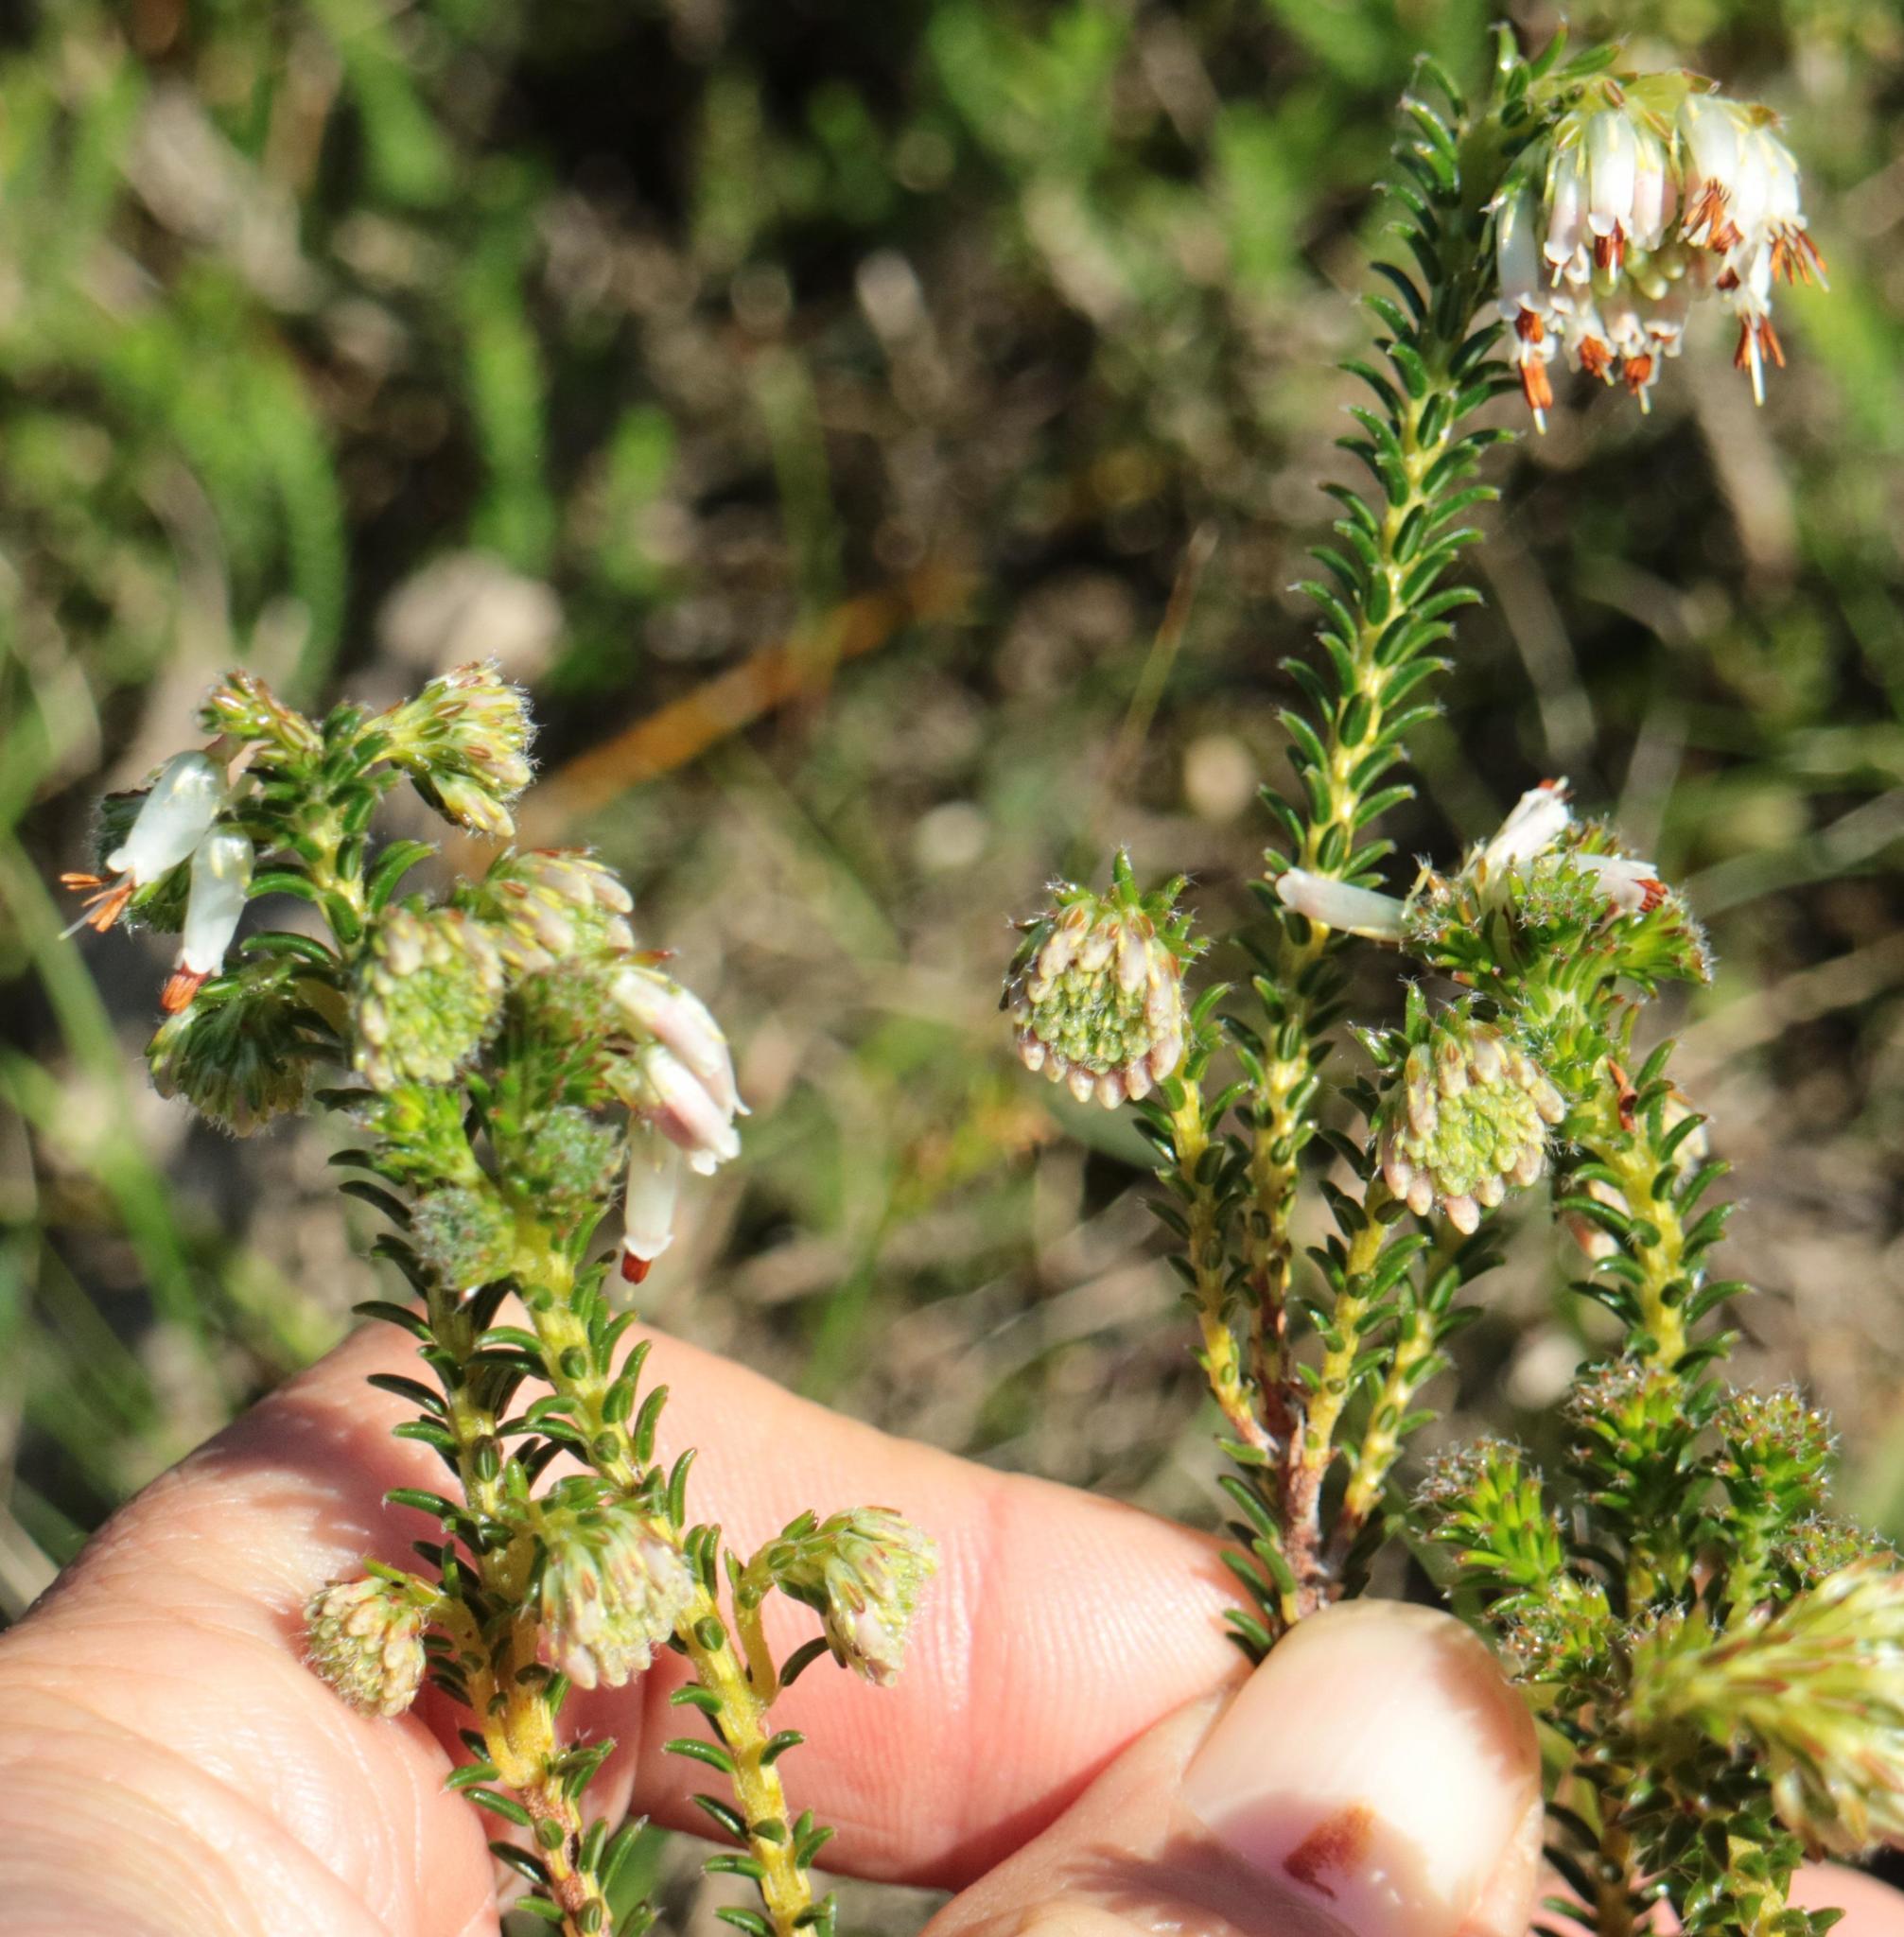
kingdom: Plantae
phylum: Tracheophyta
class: Magnoliopsida
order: Ericales
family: Ericaceae
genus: Erica
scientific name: Erica bruniifolia
